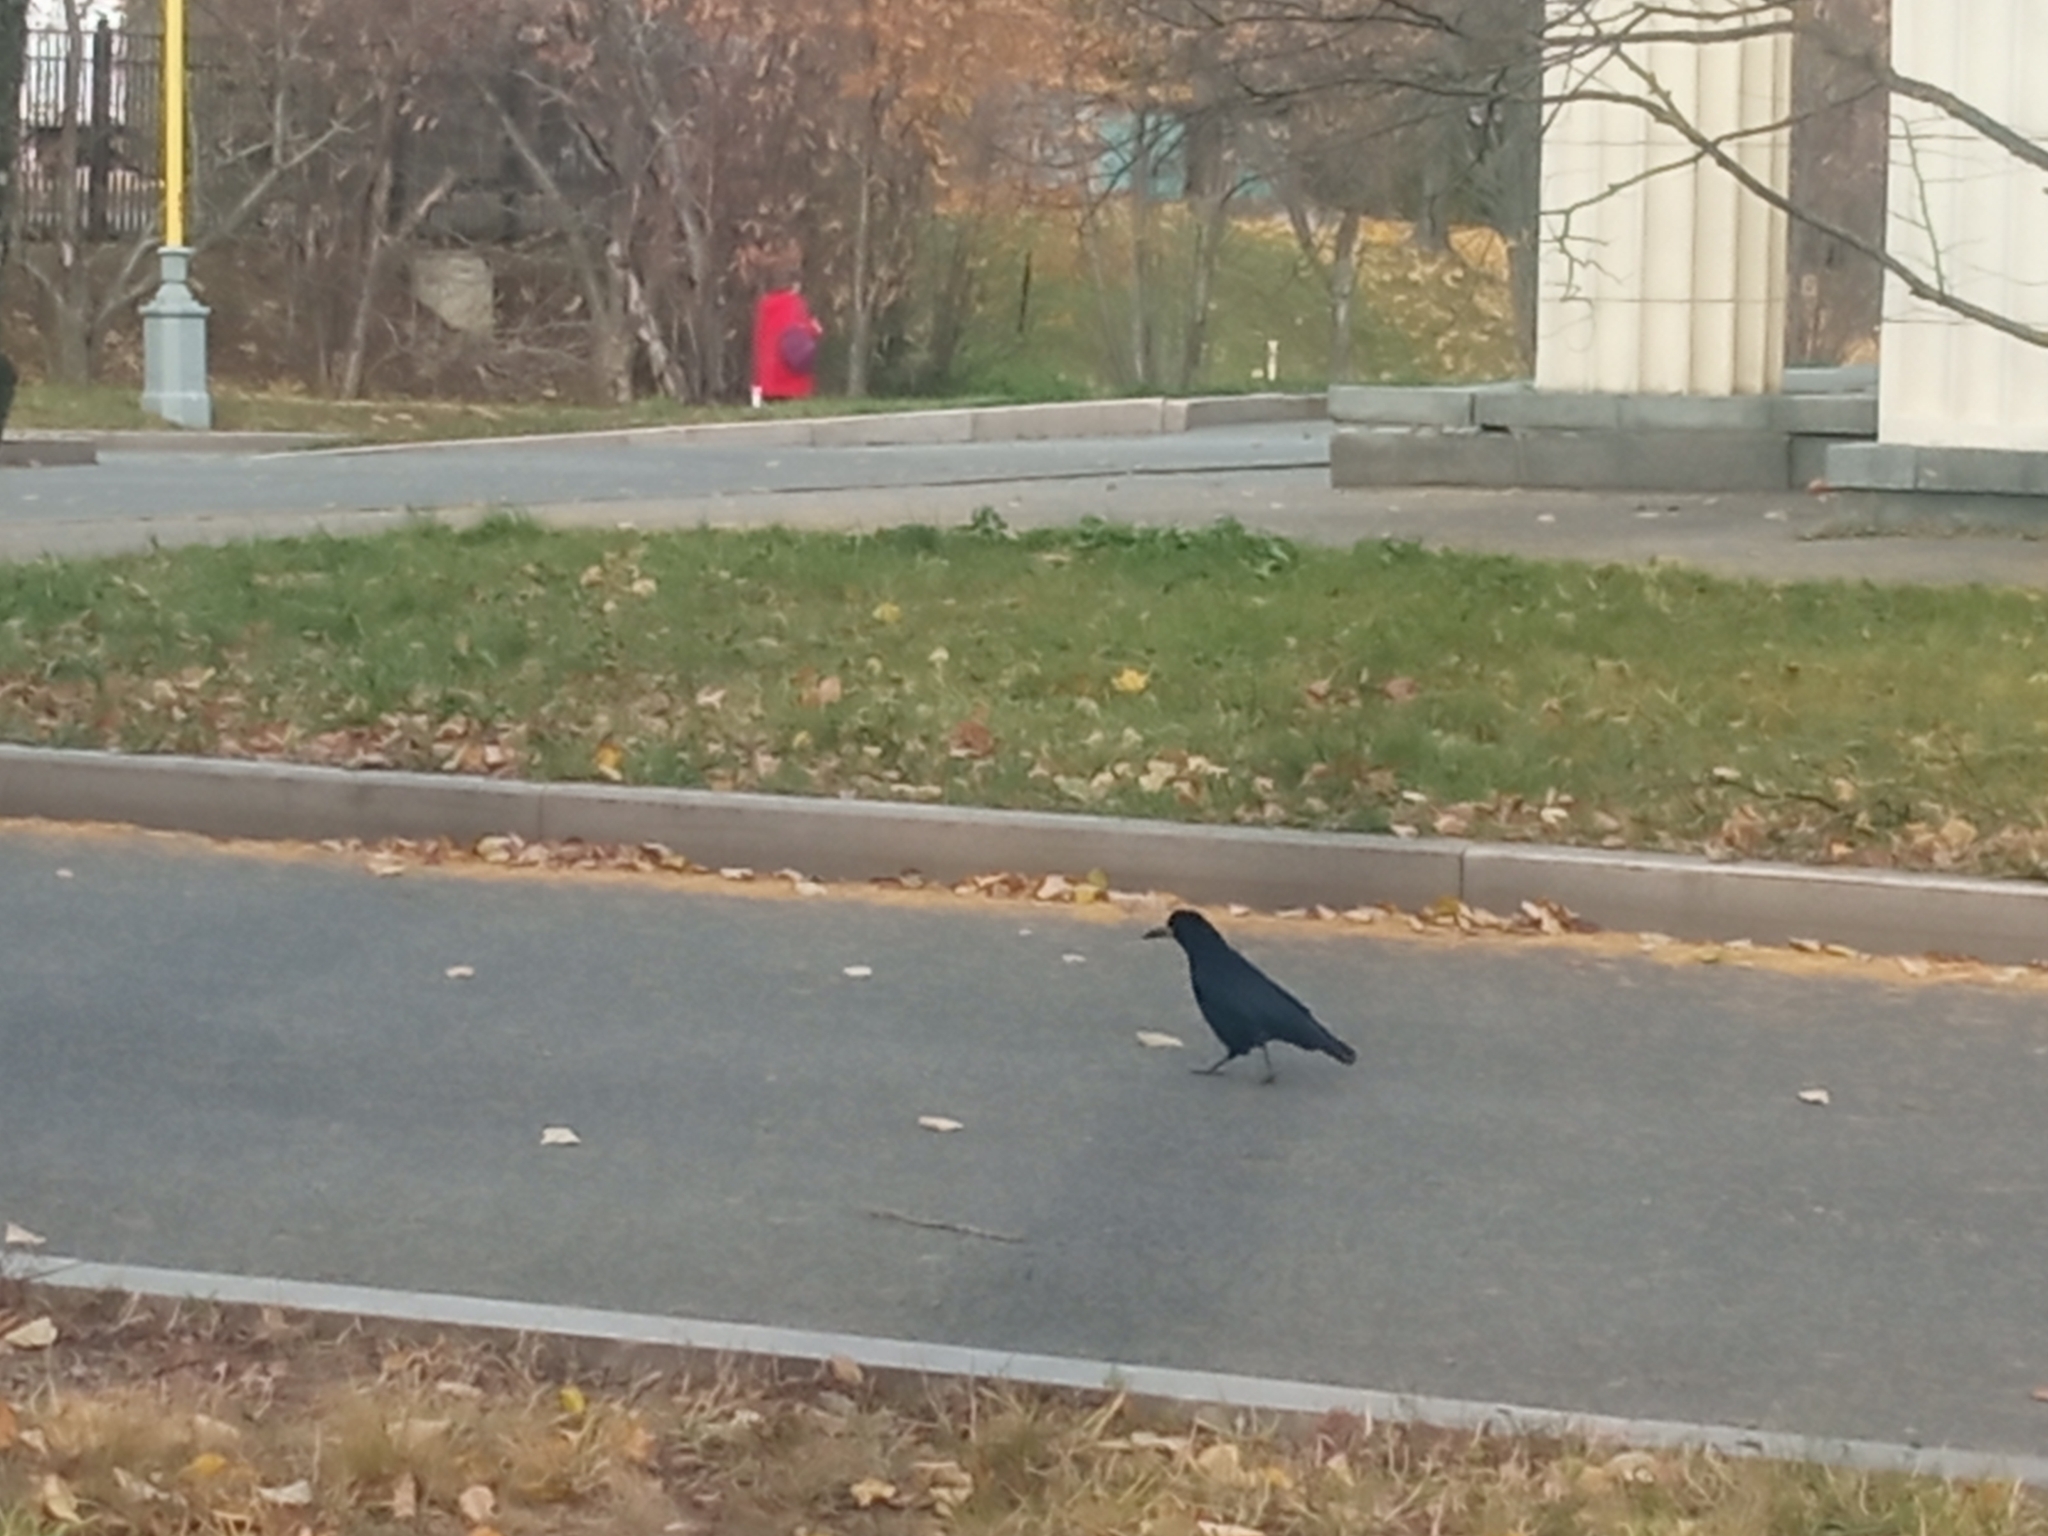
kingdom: Animalia
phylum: Chordata
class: Aves
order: Passeriformes
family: Corvidae
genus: Corvus
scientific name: Corvus frugilegus
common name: Rook
